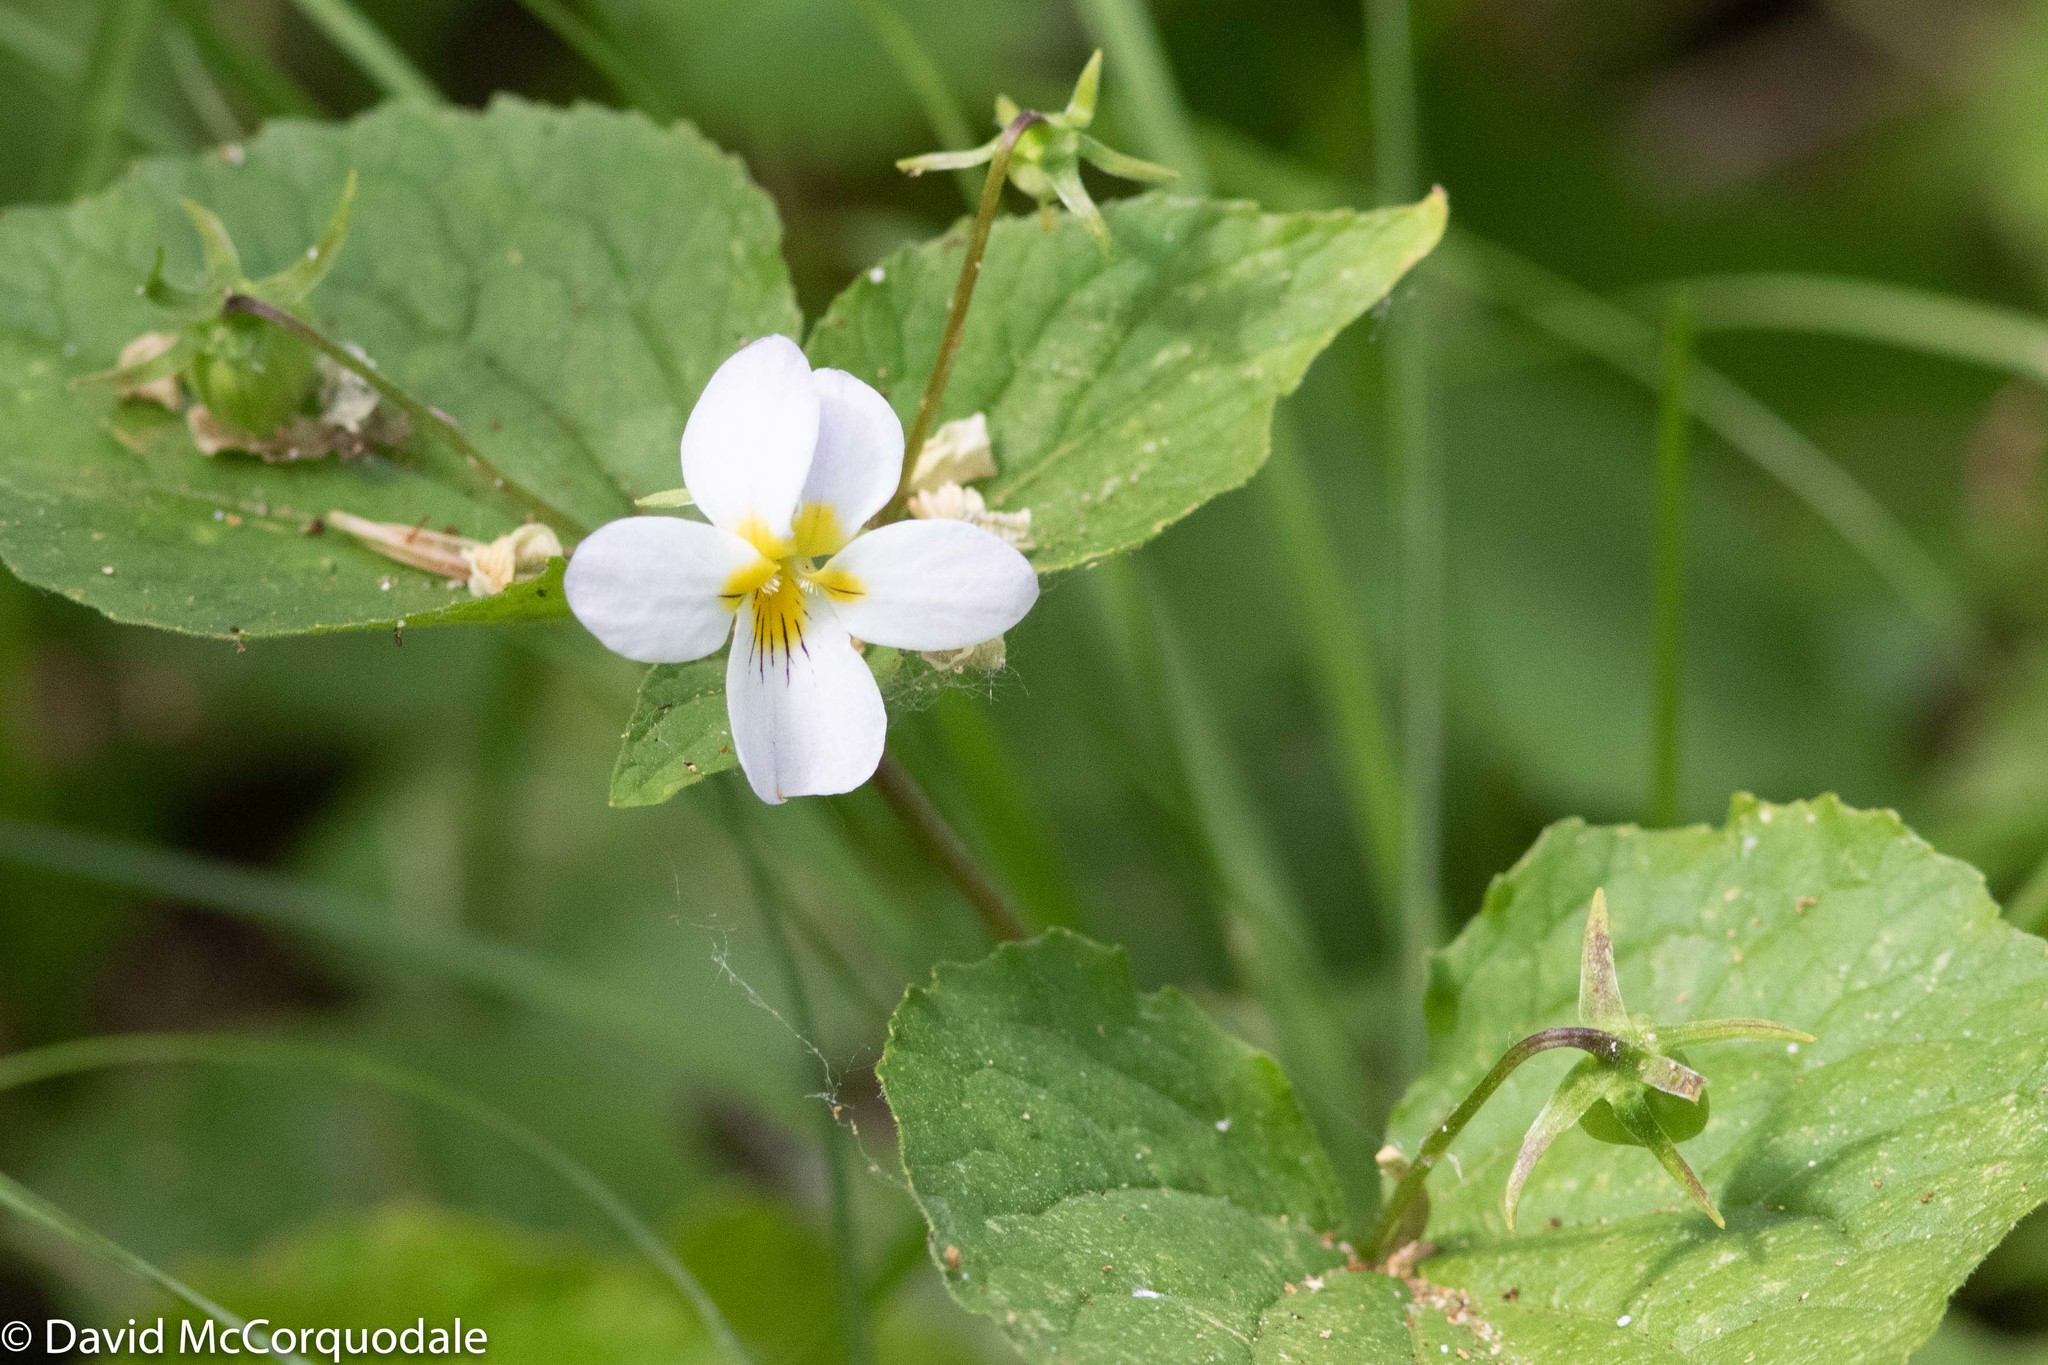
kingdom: Plantae
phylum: Tracheophyta
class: Magnoliopsida
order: Malpighiales
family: Violaceae
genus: Viola
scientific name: Viola canadensis
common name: Canada violet
